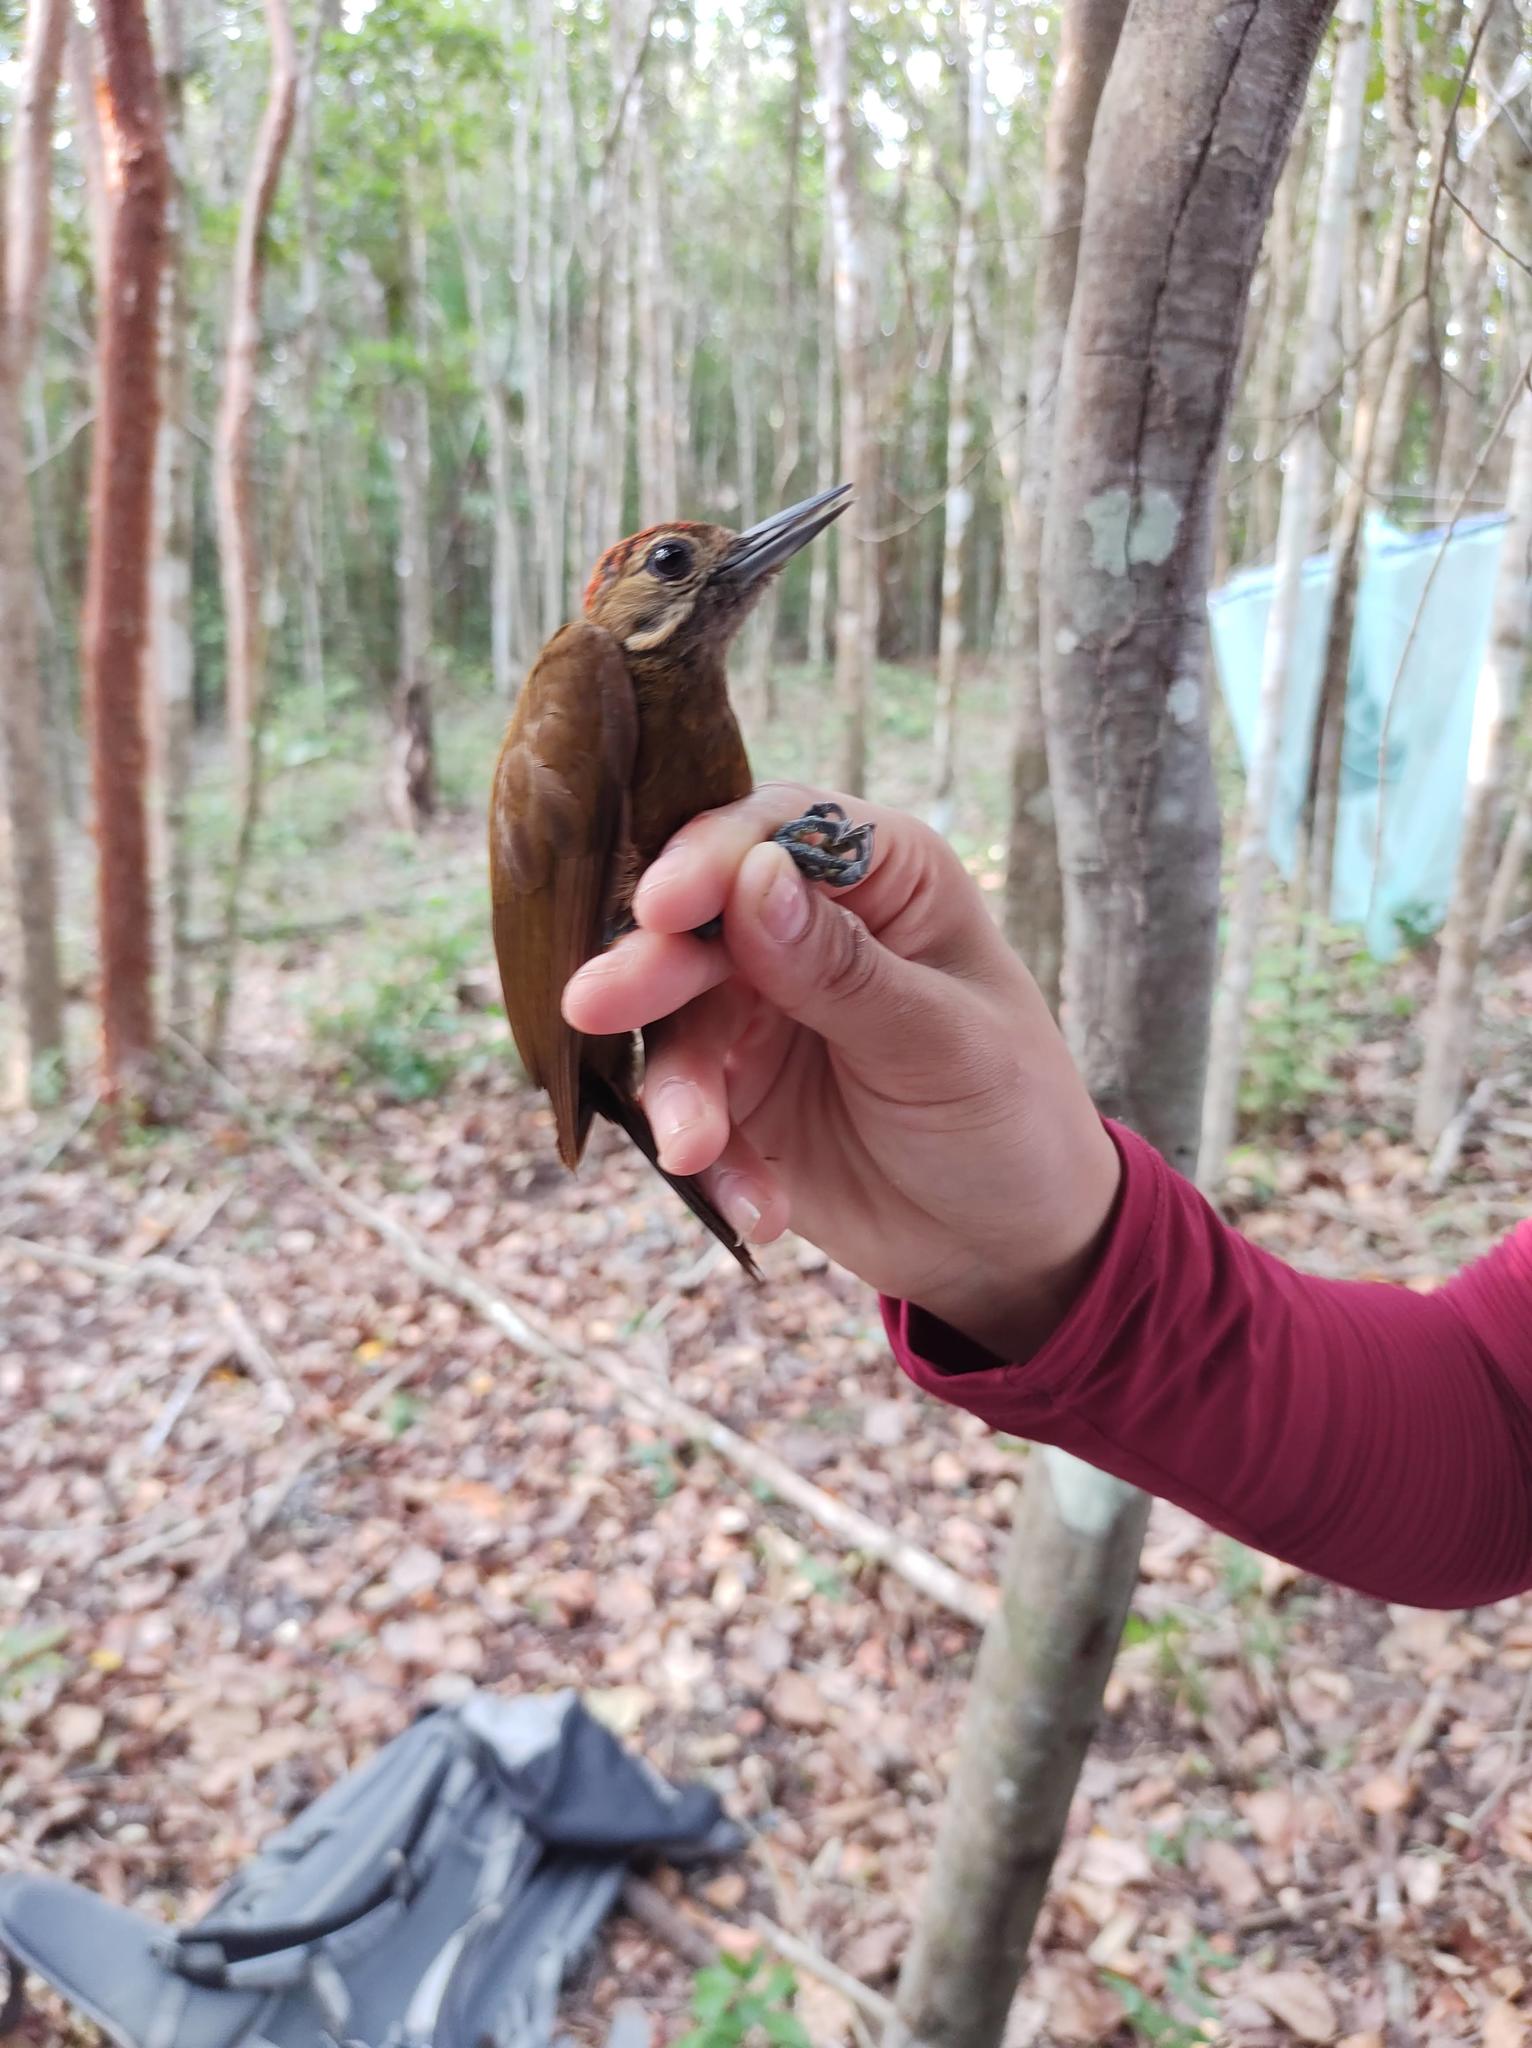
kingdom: Animalia
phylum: Chordata
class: Aves
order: Piciformes
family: Picidae
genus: Leuconotopicus
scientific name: Leuconotopicus fumigatus
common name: Smoky-brown woodpecker
